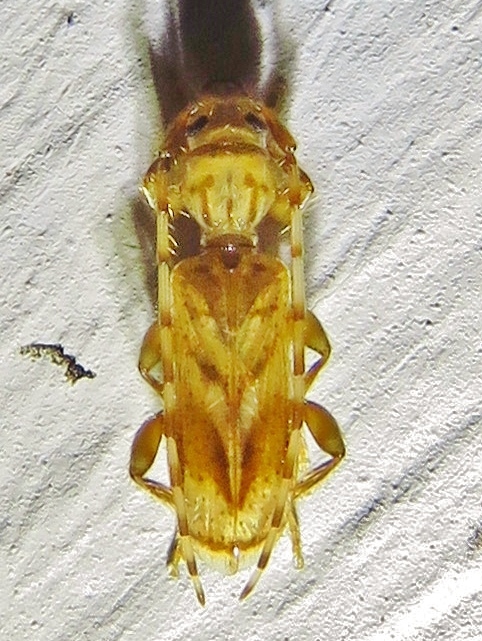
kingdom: Animalia
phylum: Arthropoda
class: Insecta
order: Coleoptera
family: Cerambycidae
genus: Obrium
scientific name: Obrium maculatum
